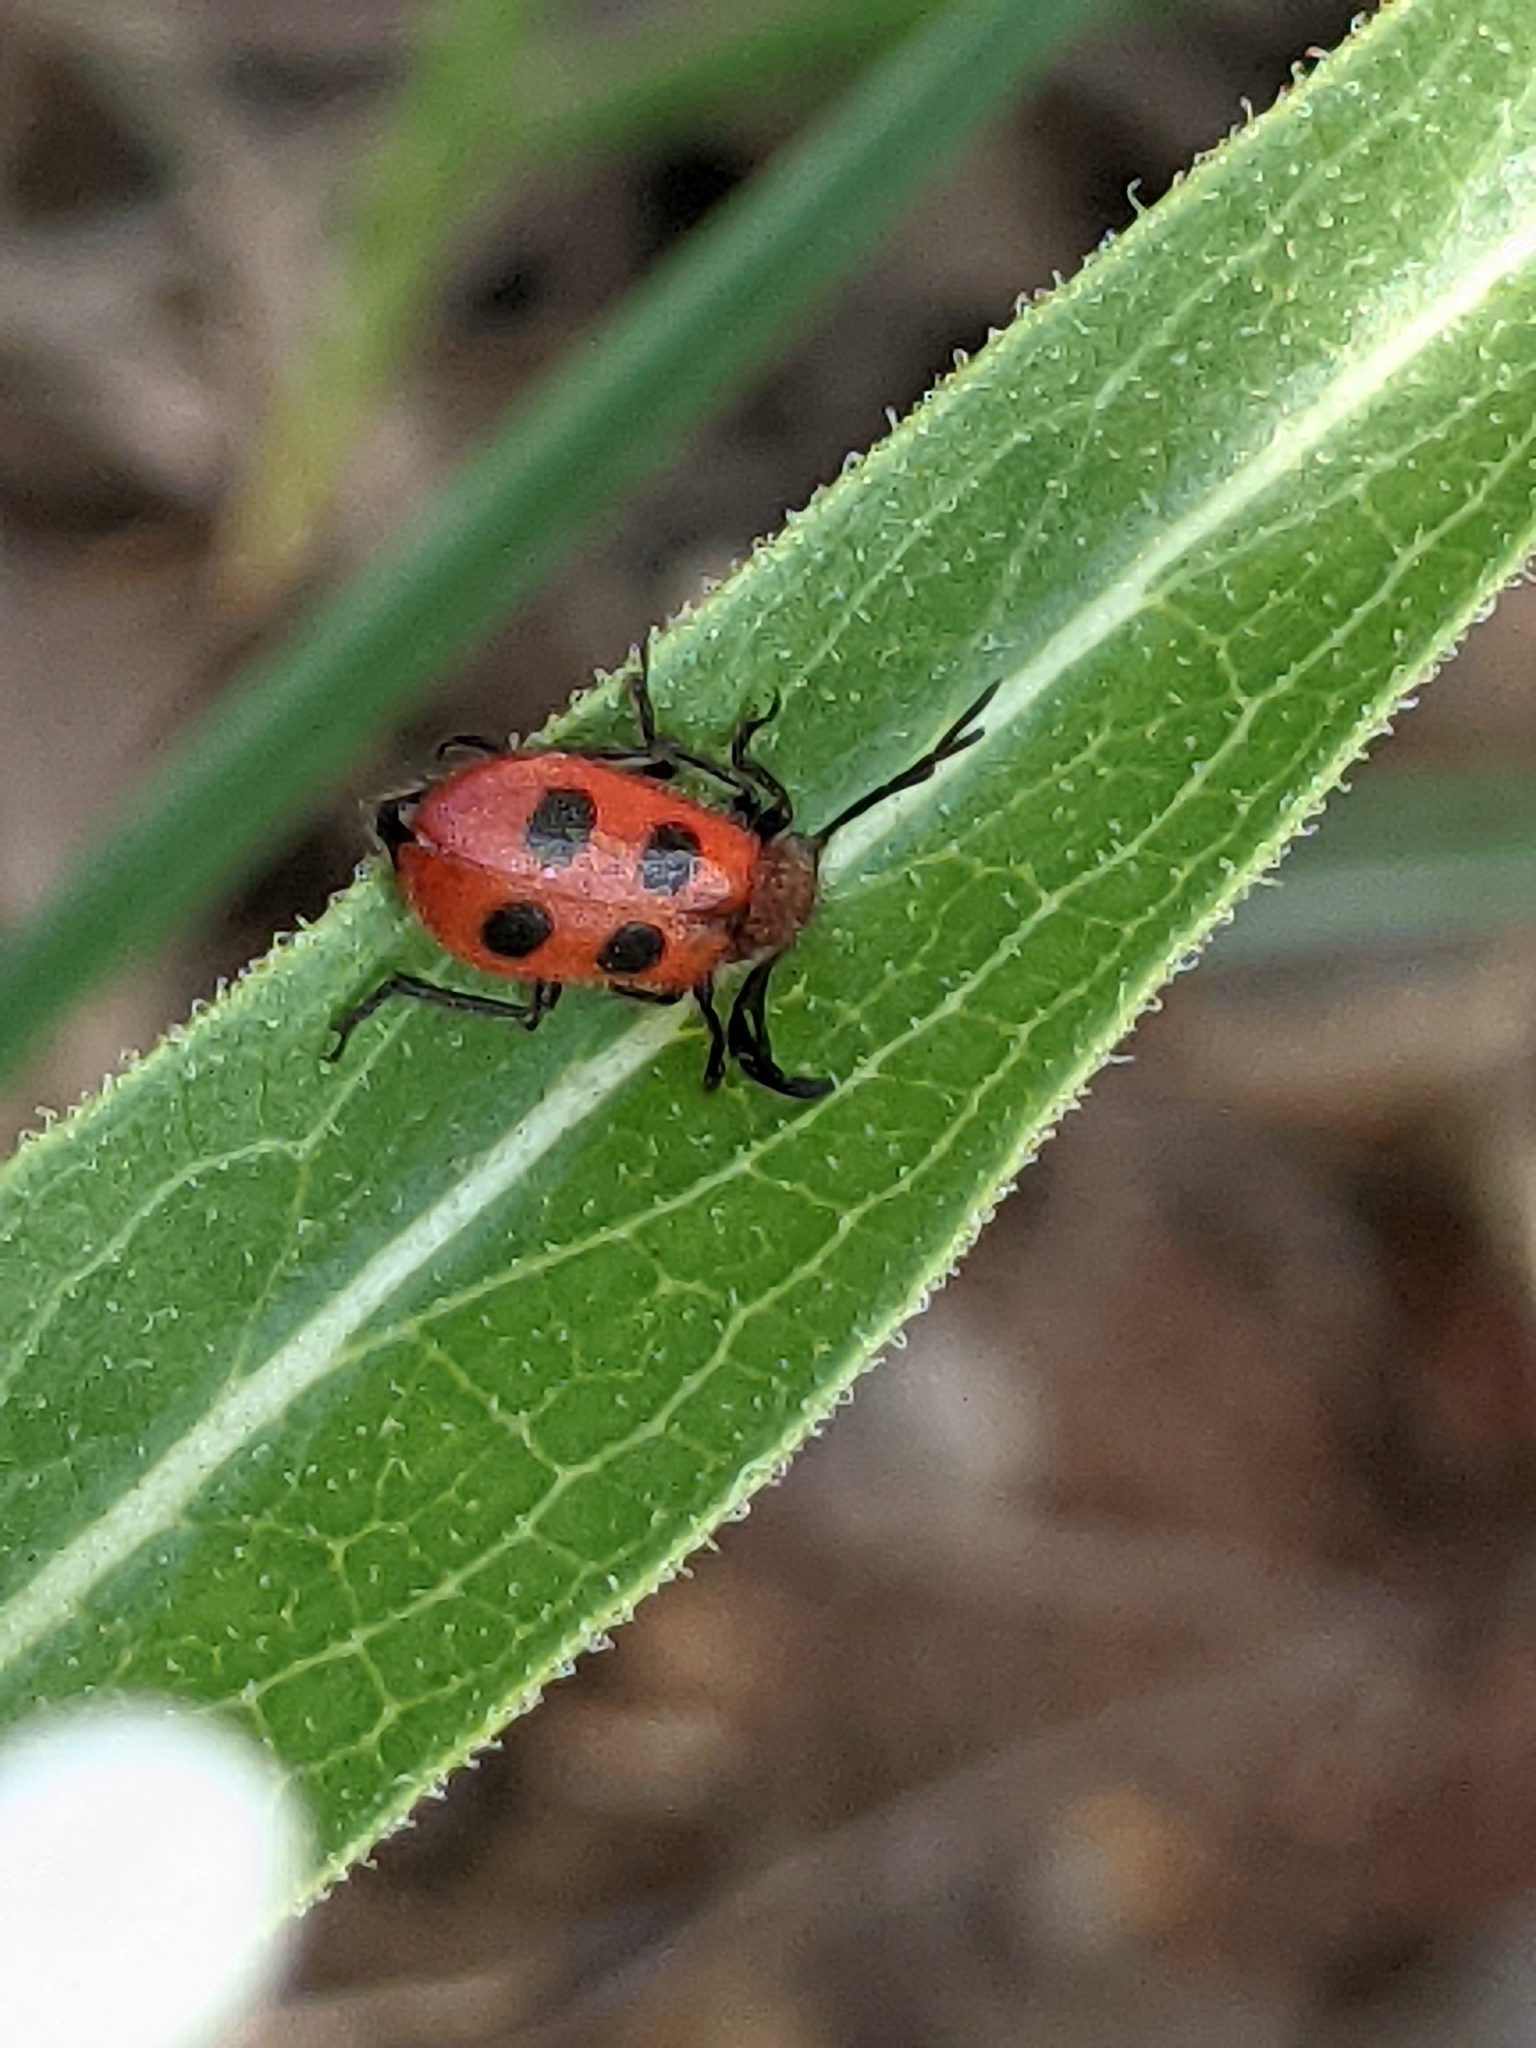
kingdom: Animalia
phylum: Arthropoda
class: Insecta
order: Coleoptera
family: Cleridae
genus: Pelonides
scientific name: Pelonides
